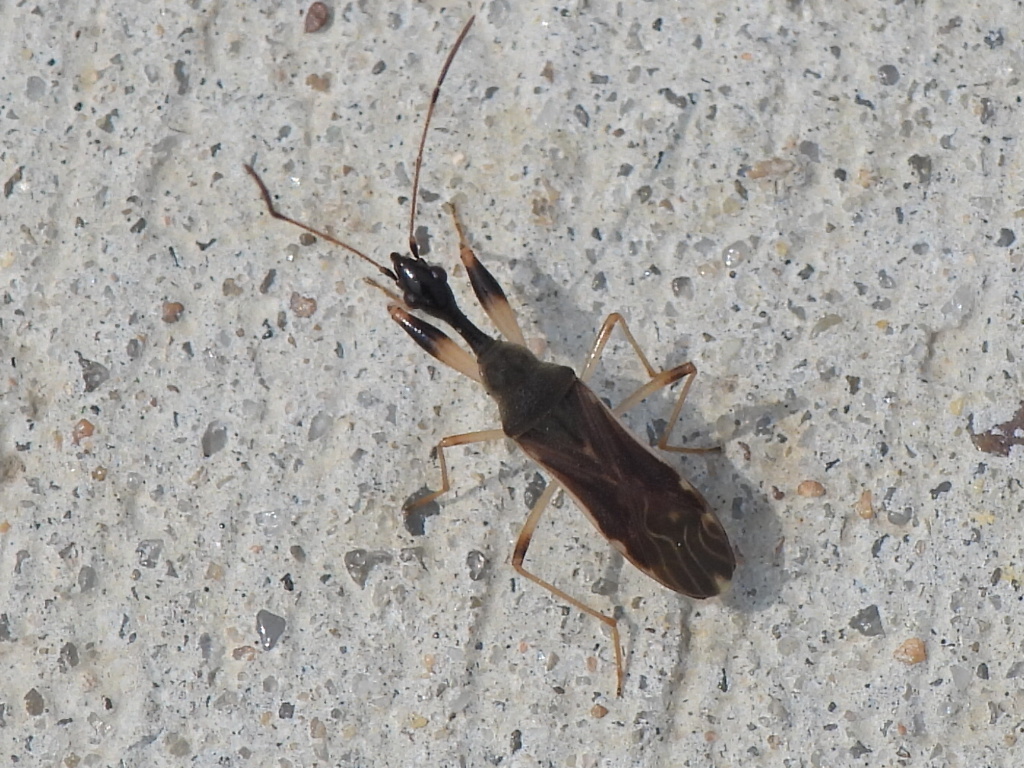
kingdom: Animalia
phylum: Arthropoda
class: Insecta
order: Hemiptera
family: Rhyparochromidae
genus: Myodocha
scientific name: Myodocha serripes
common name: Long-necked seed bug
